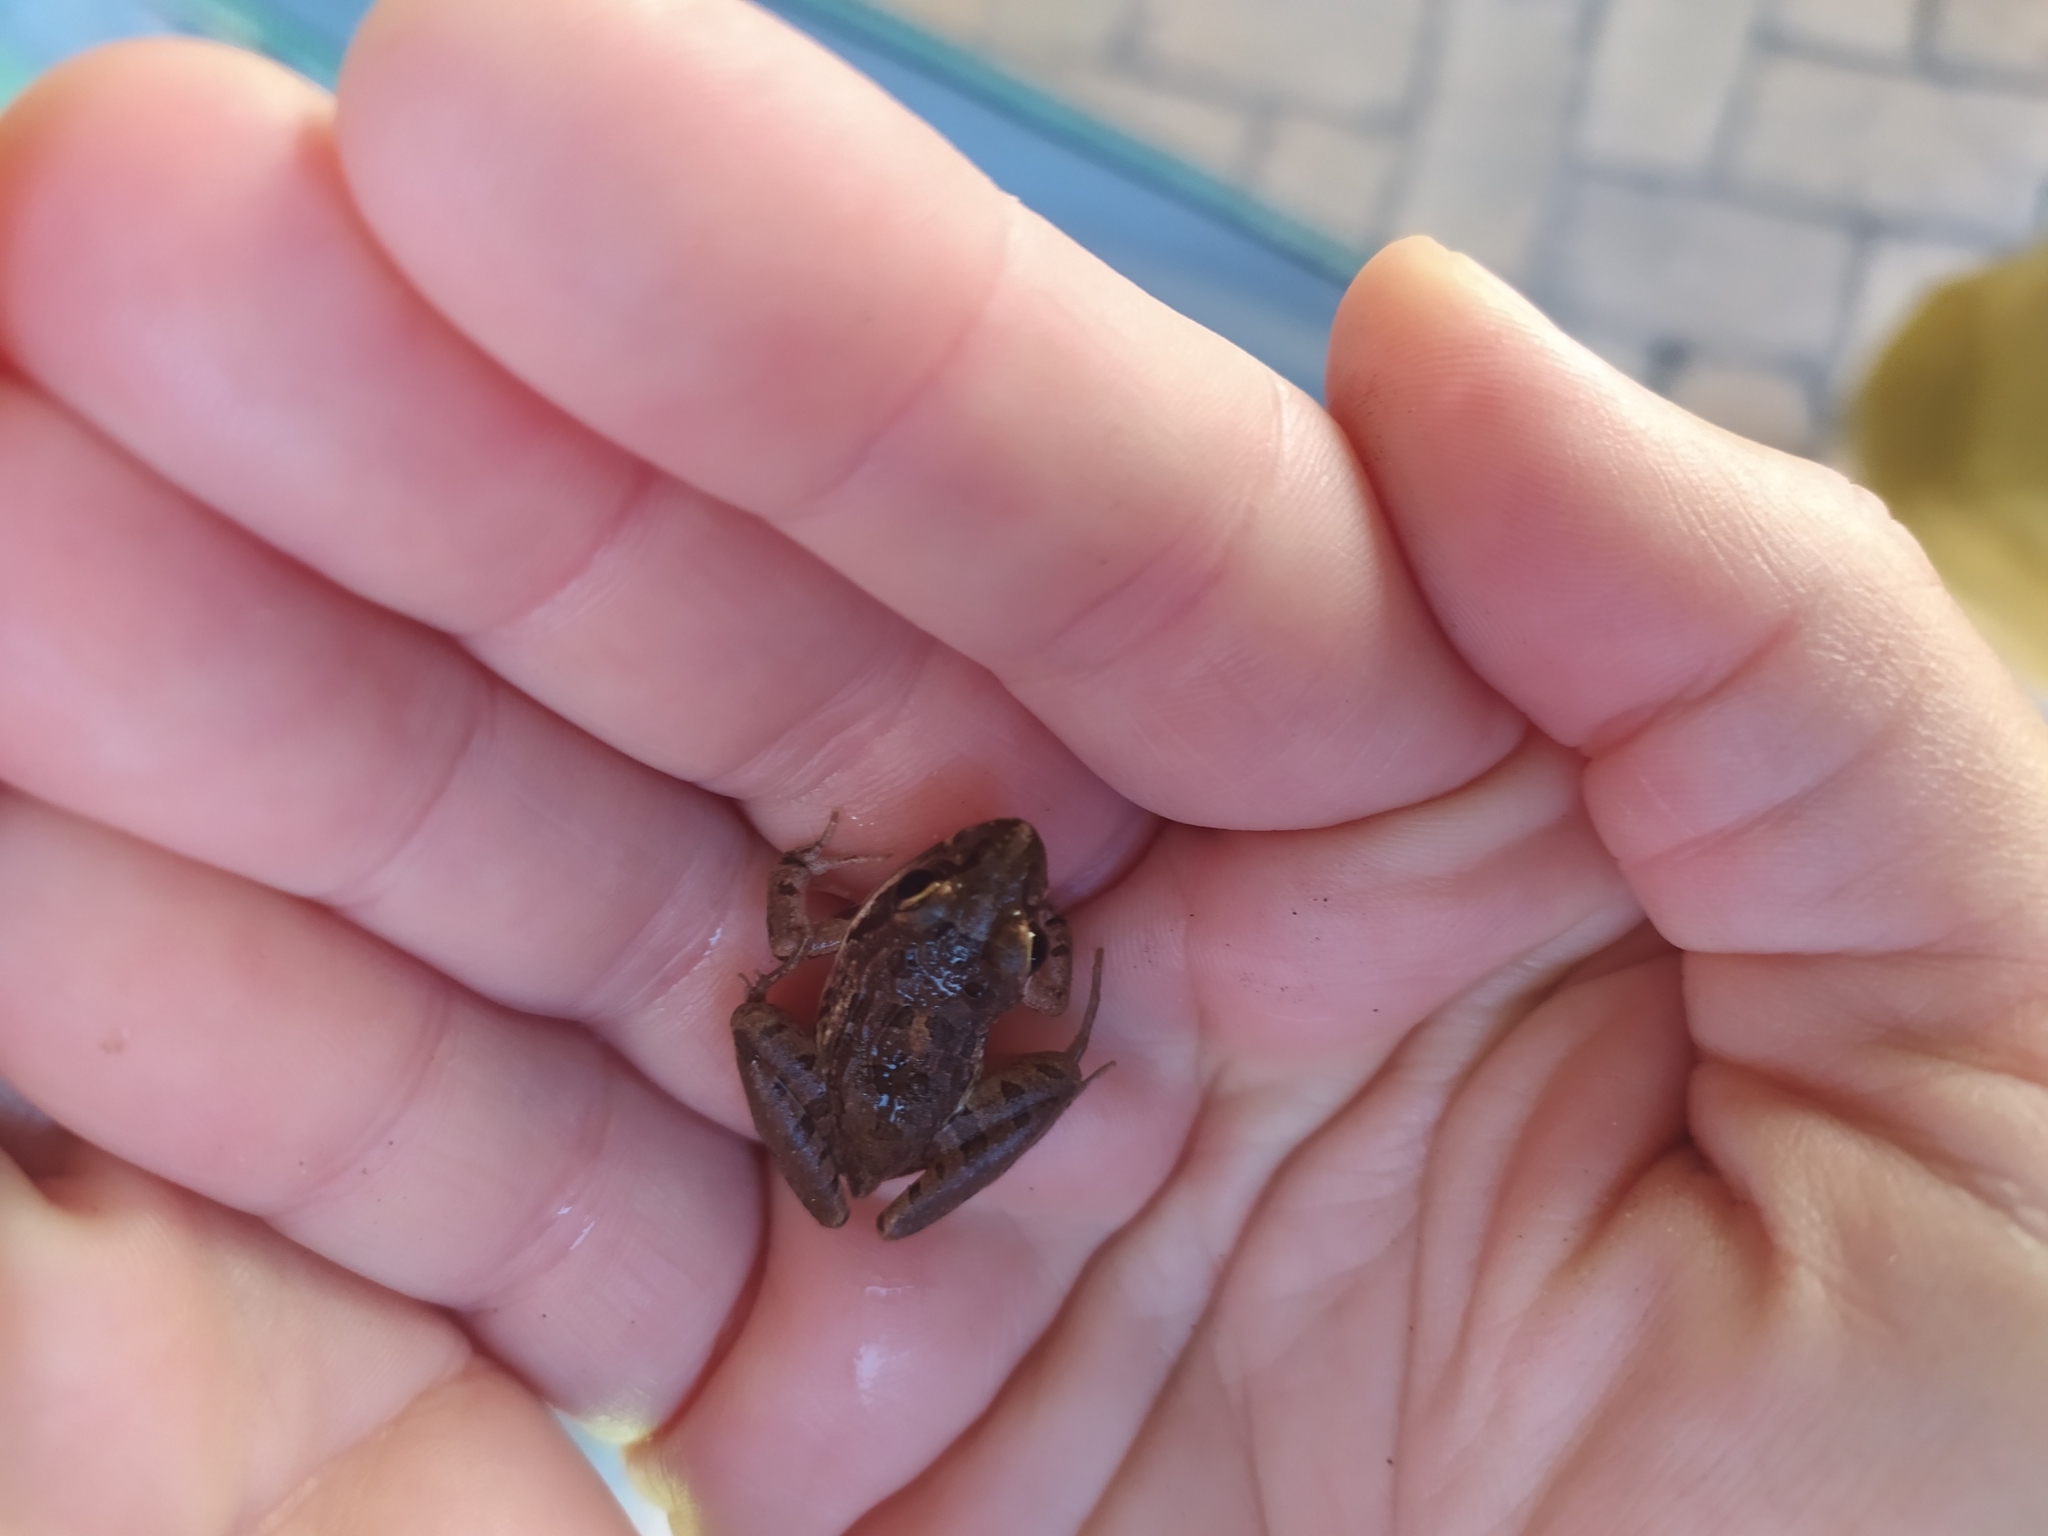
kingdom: Animalia
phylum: Chordata
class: Amphibia
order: Anura
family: Pyxicephalidae
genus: Strongylopus
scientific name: Strongylopus grayii
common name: Gray's stream frog
